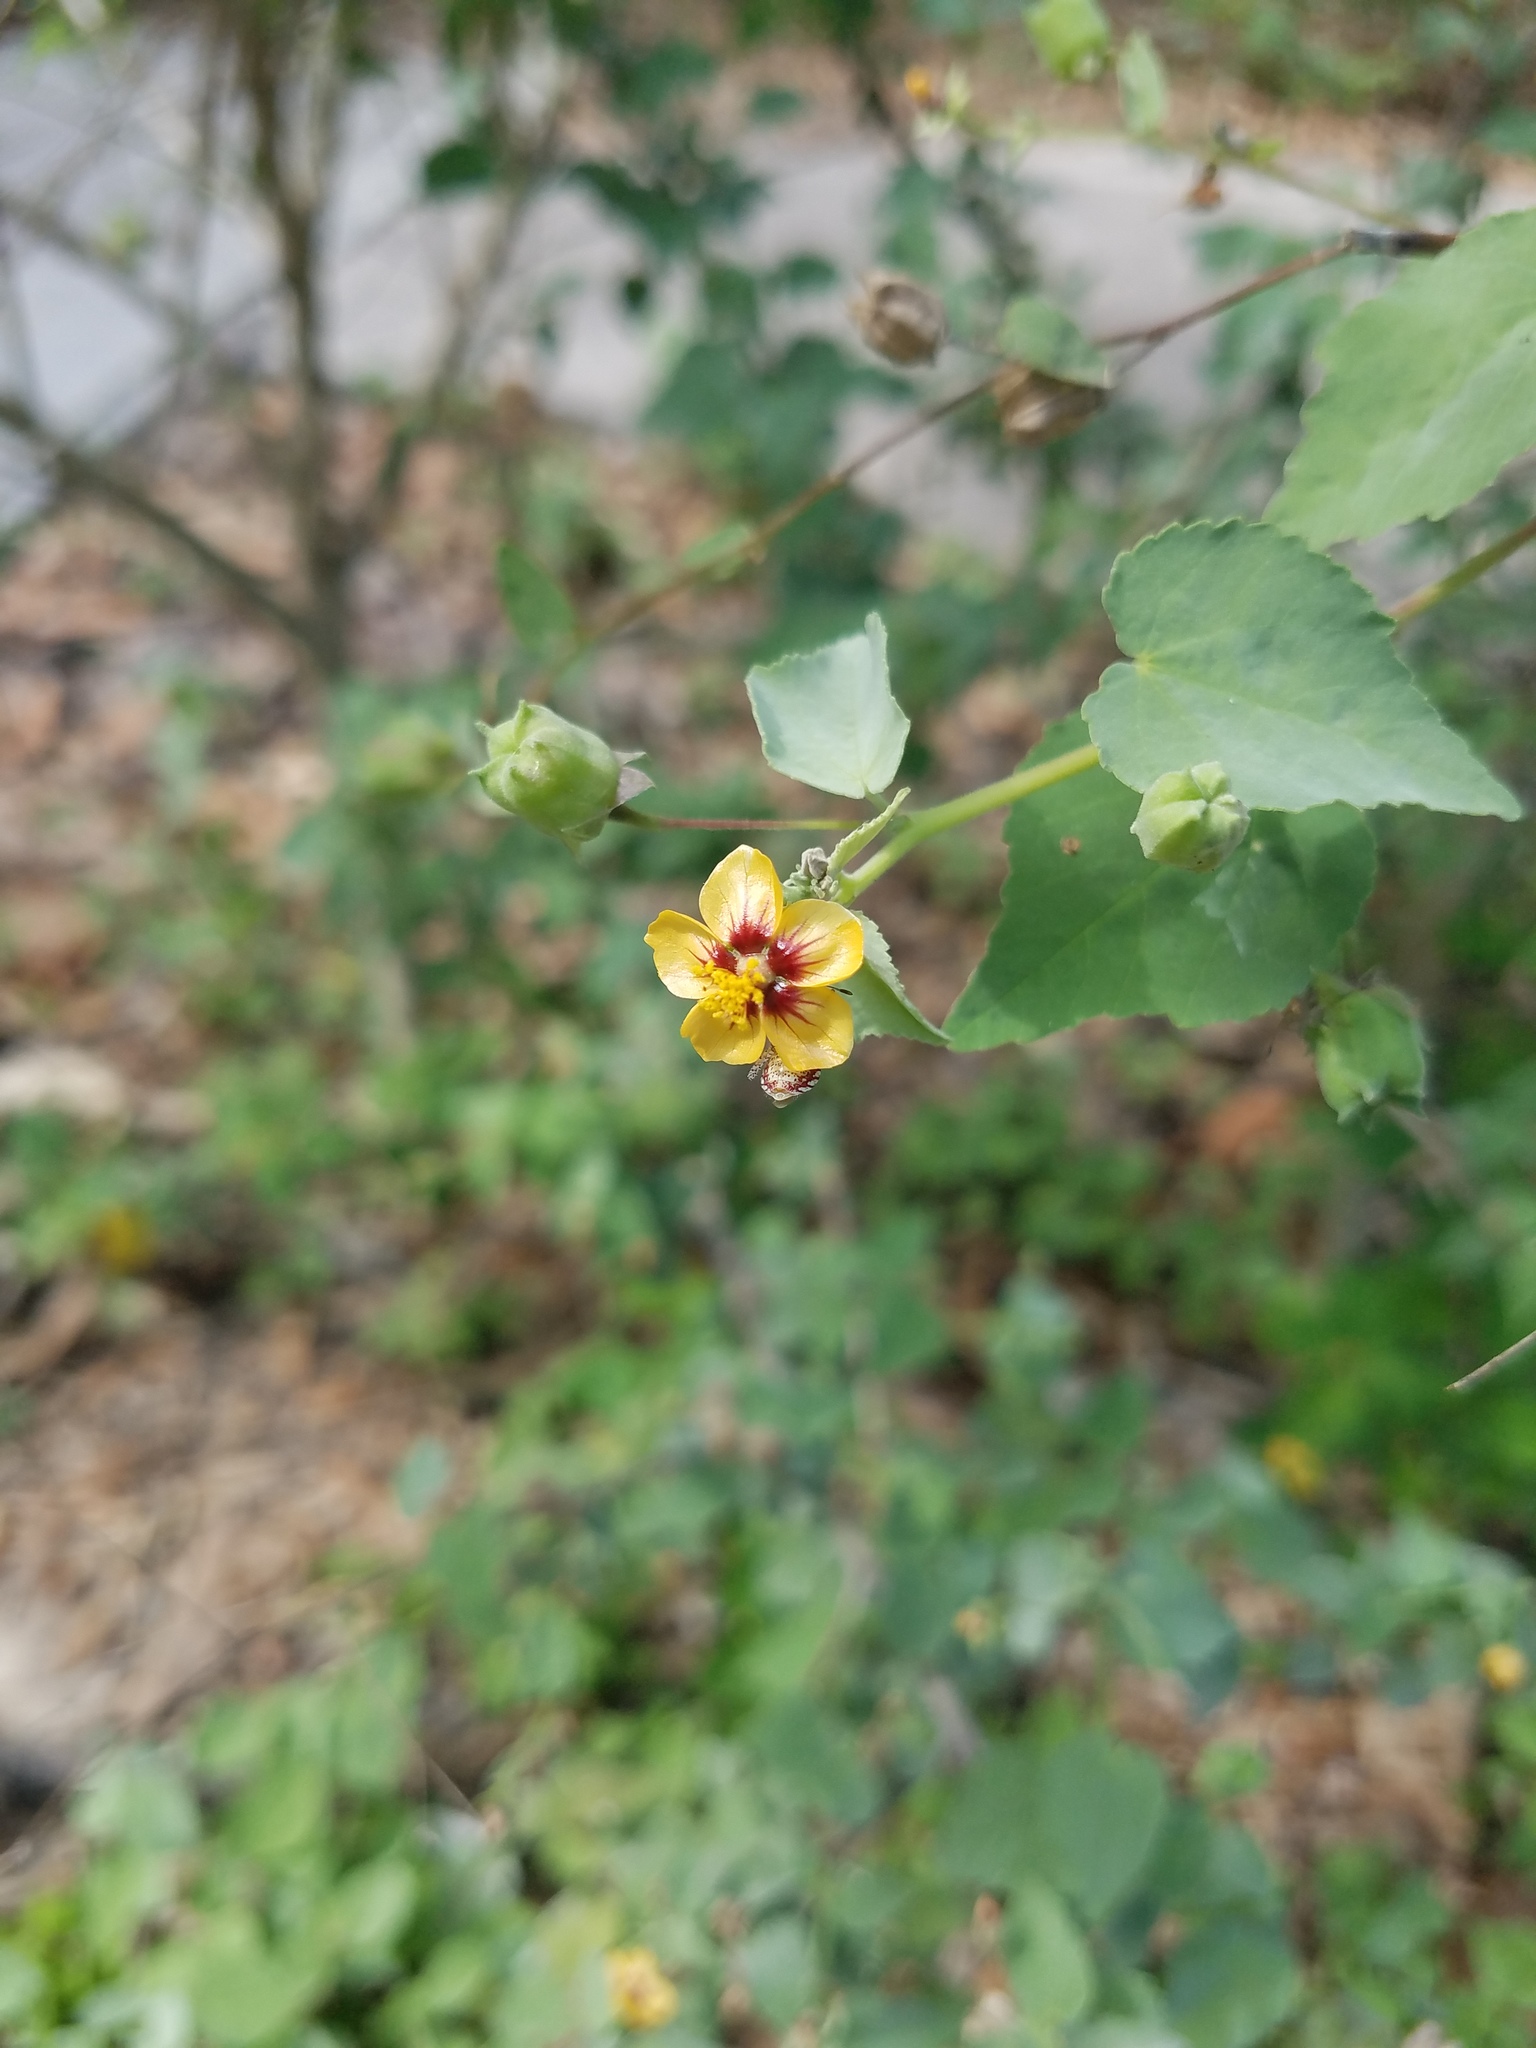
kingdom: Plantae
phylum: Tracheophyta
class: Magnoliopsida
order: Malvales
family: Malvaceae
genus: Abutilon
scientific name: Abutilon trisulcatum
